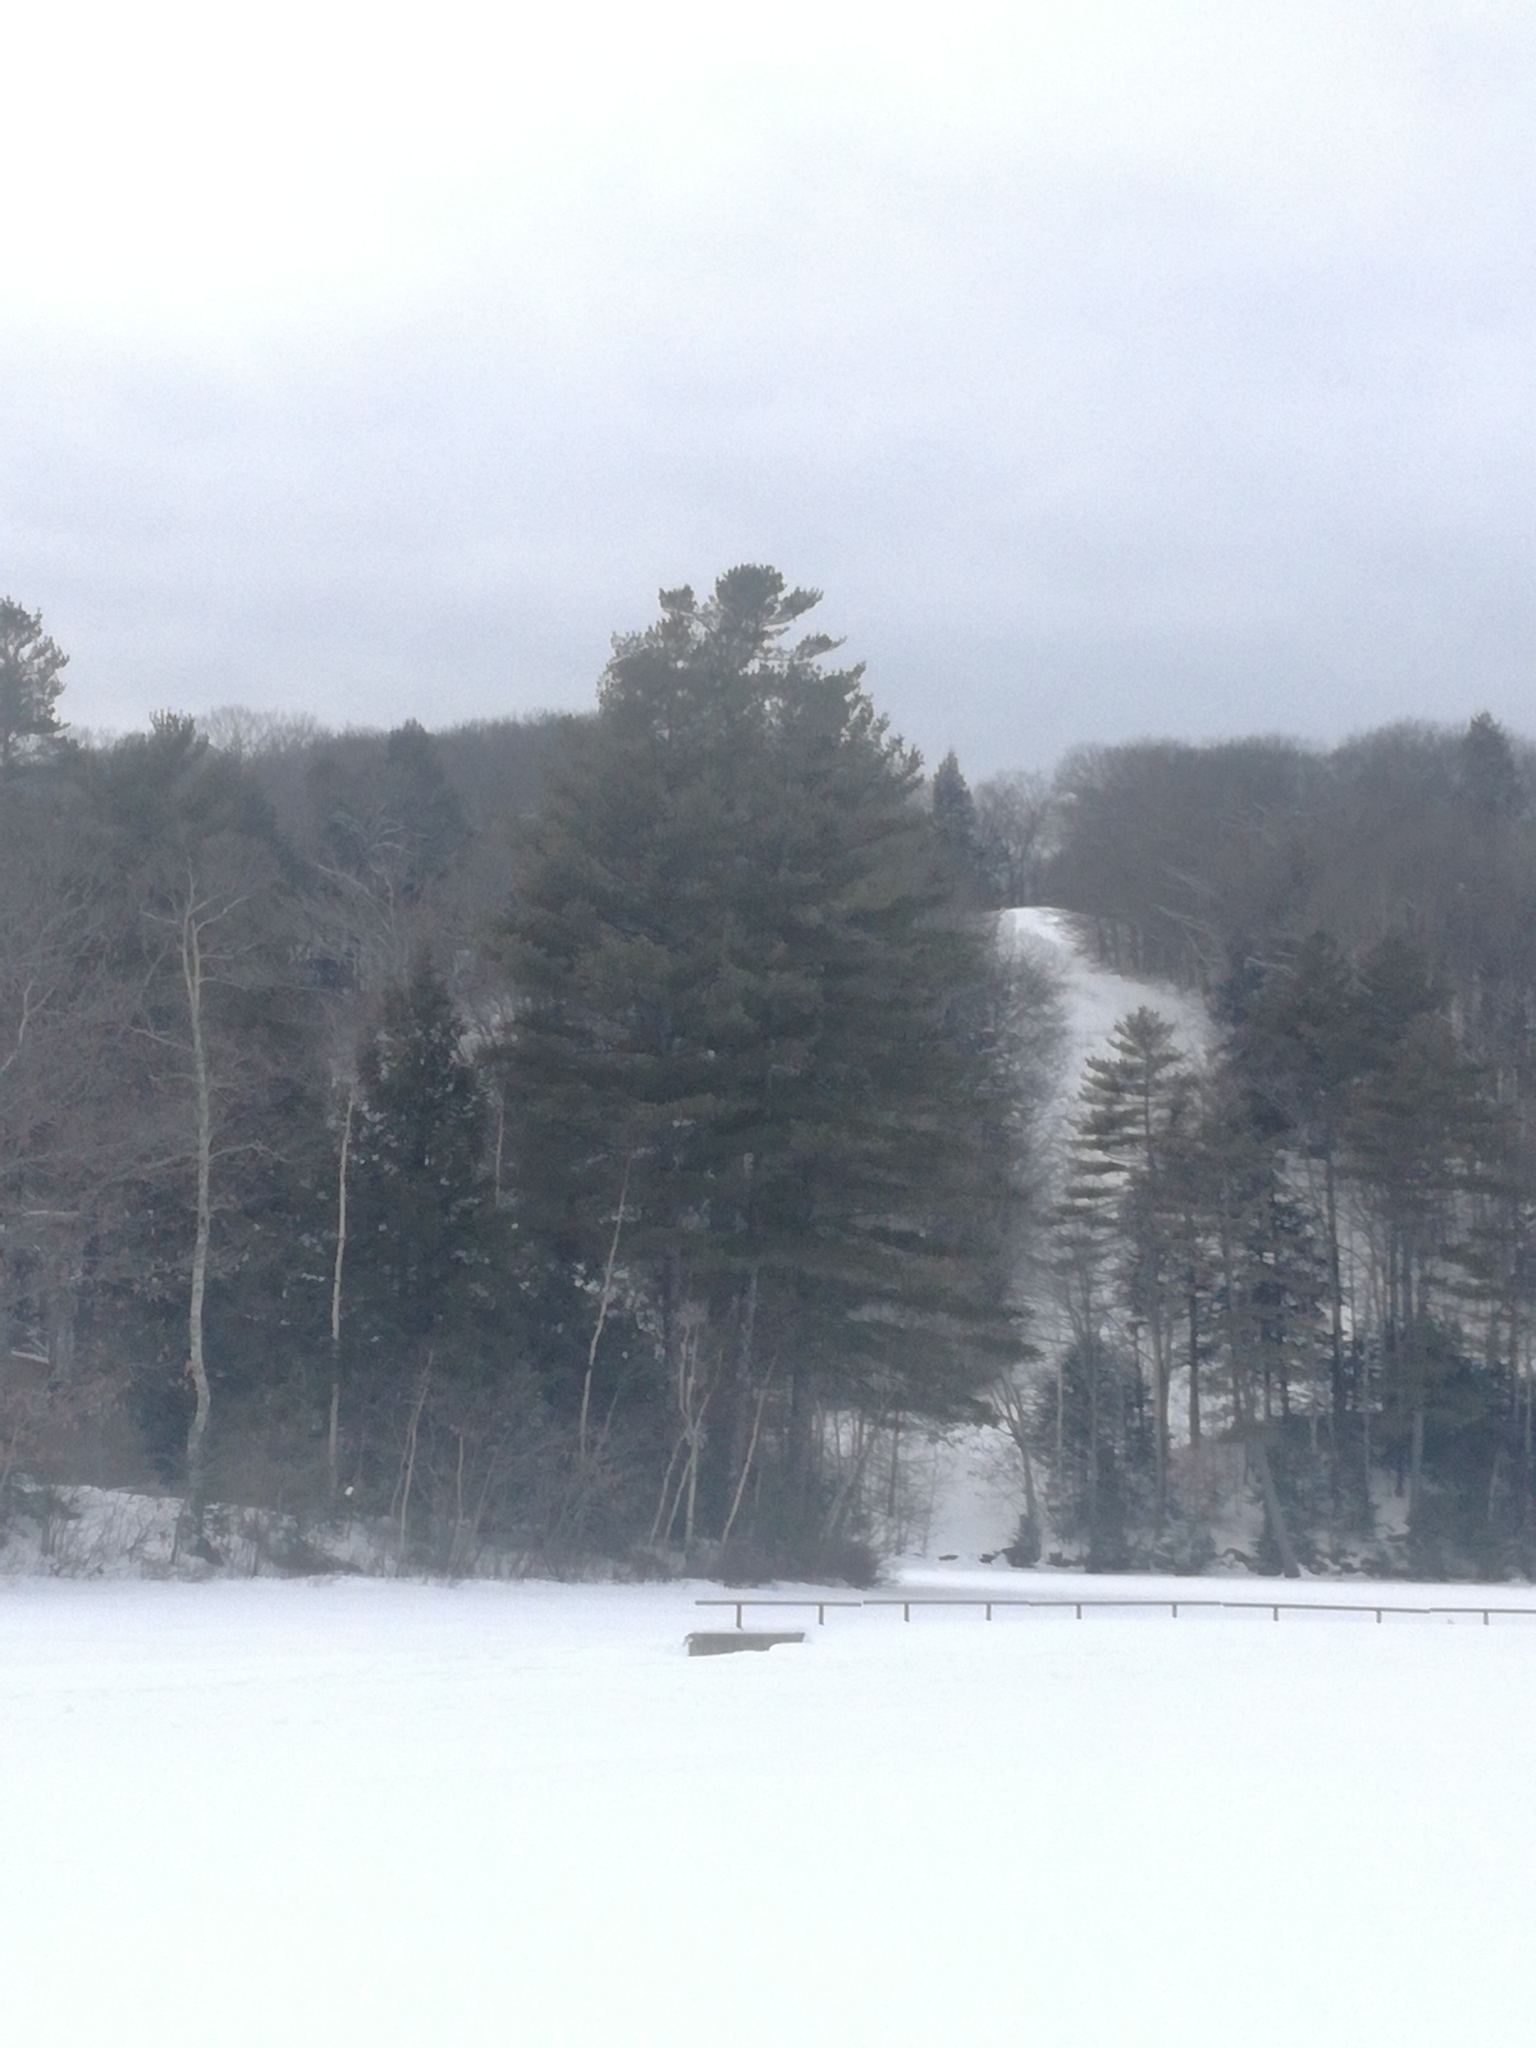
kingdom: Plantae
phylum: Tracheophyta
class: Pinopsida
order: Pinales
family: Pinaceae
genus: Pinus
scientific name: Pinus strobus
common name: Weymouth pine
